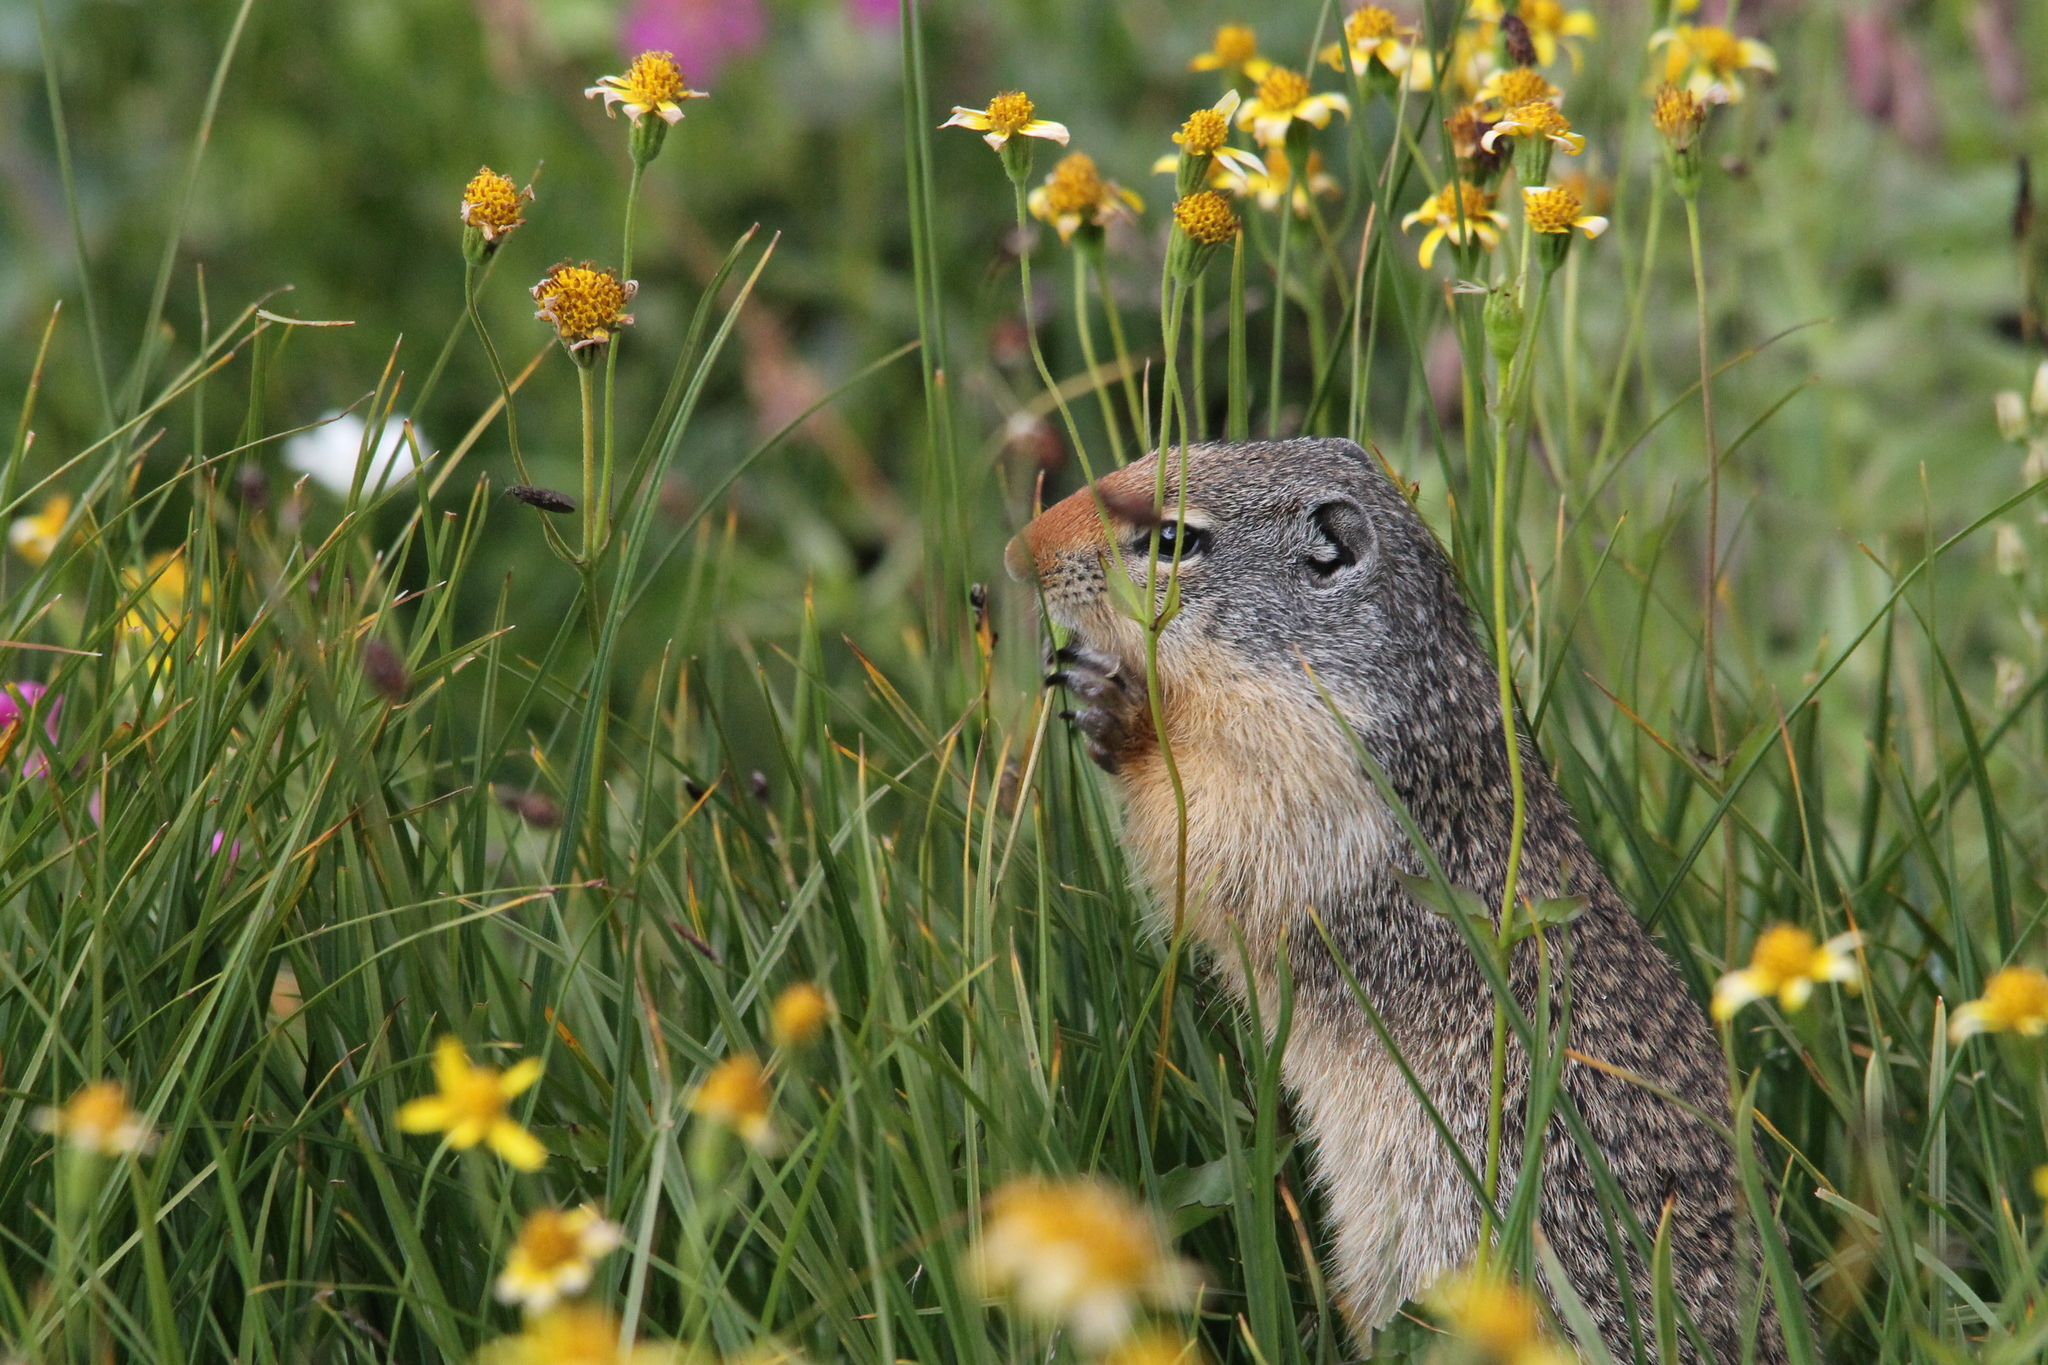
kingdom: Animalia
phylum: Chordata
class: Mammalia
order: Rodentia
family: Sciuridae
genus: Urocitellus
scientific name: Urocitellus columbianus
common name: Columbian ground squirrel
